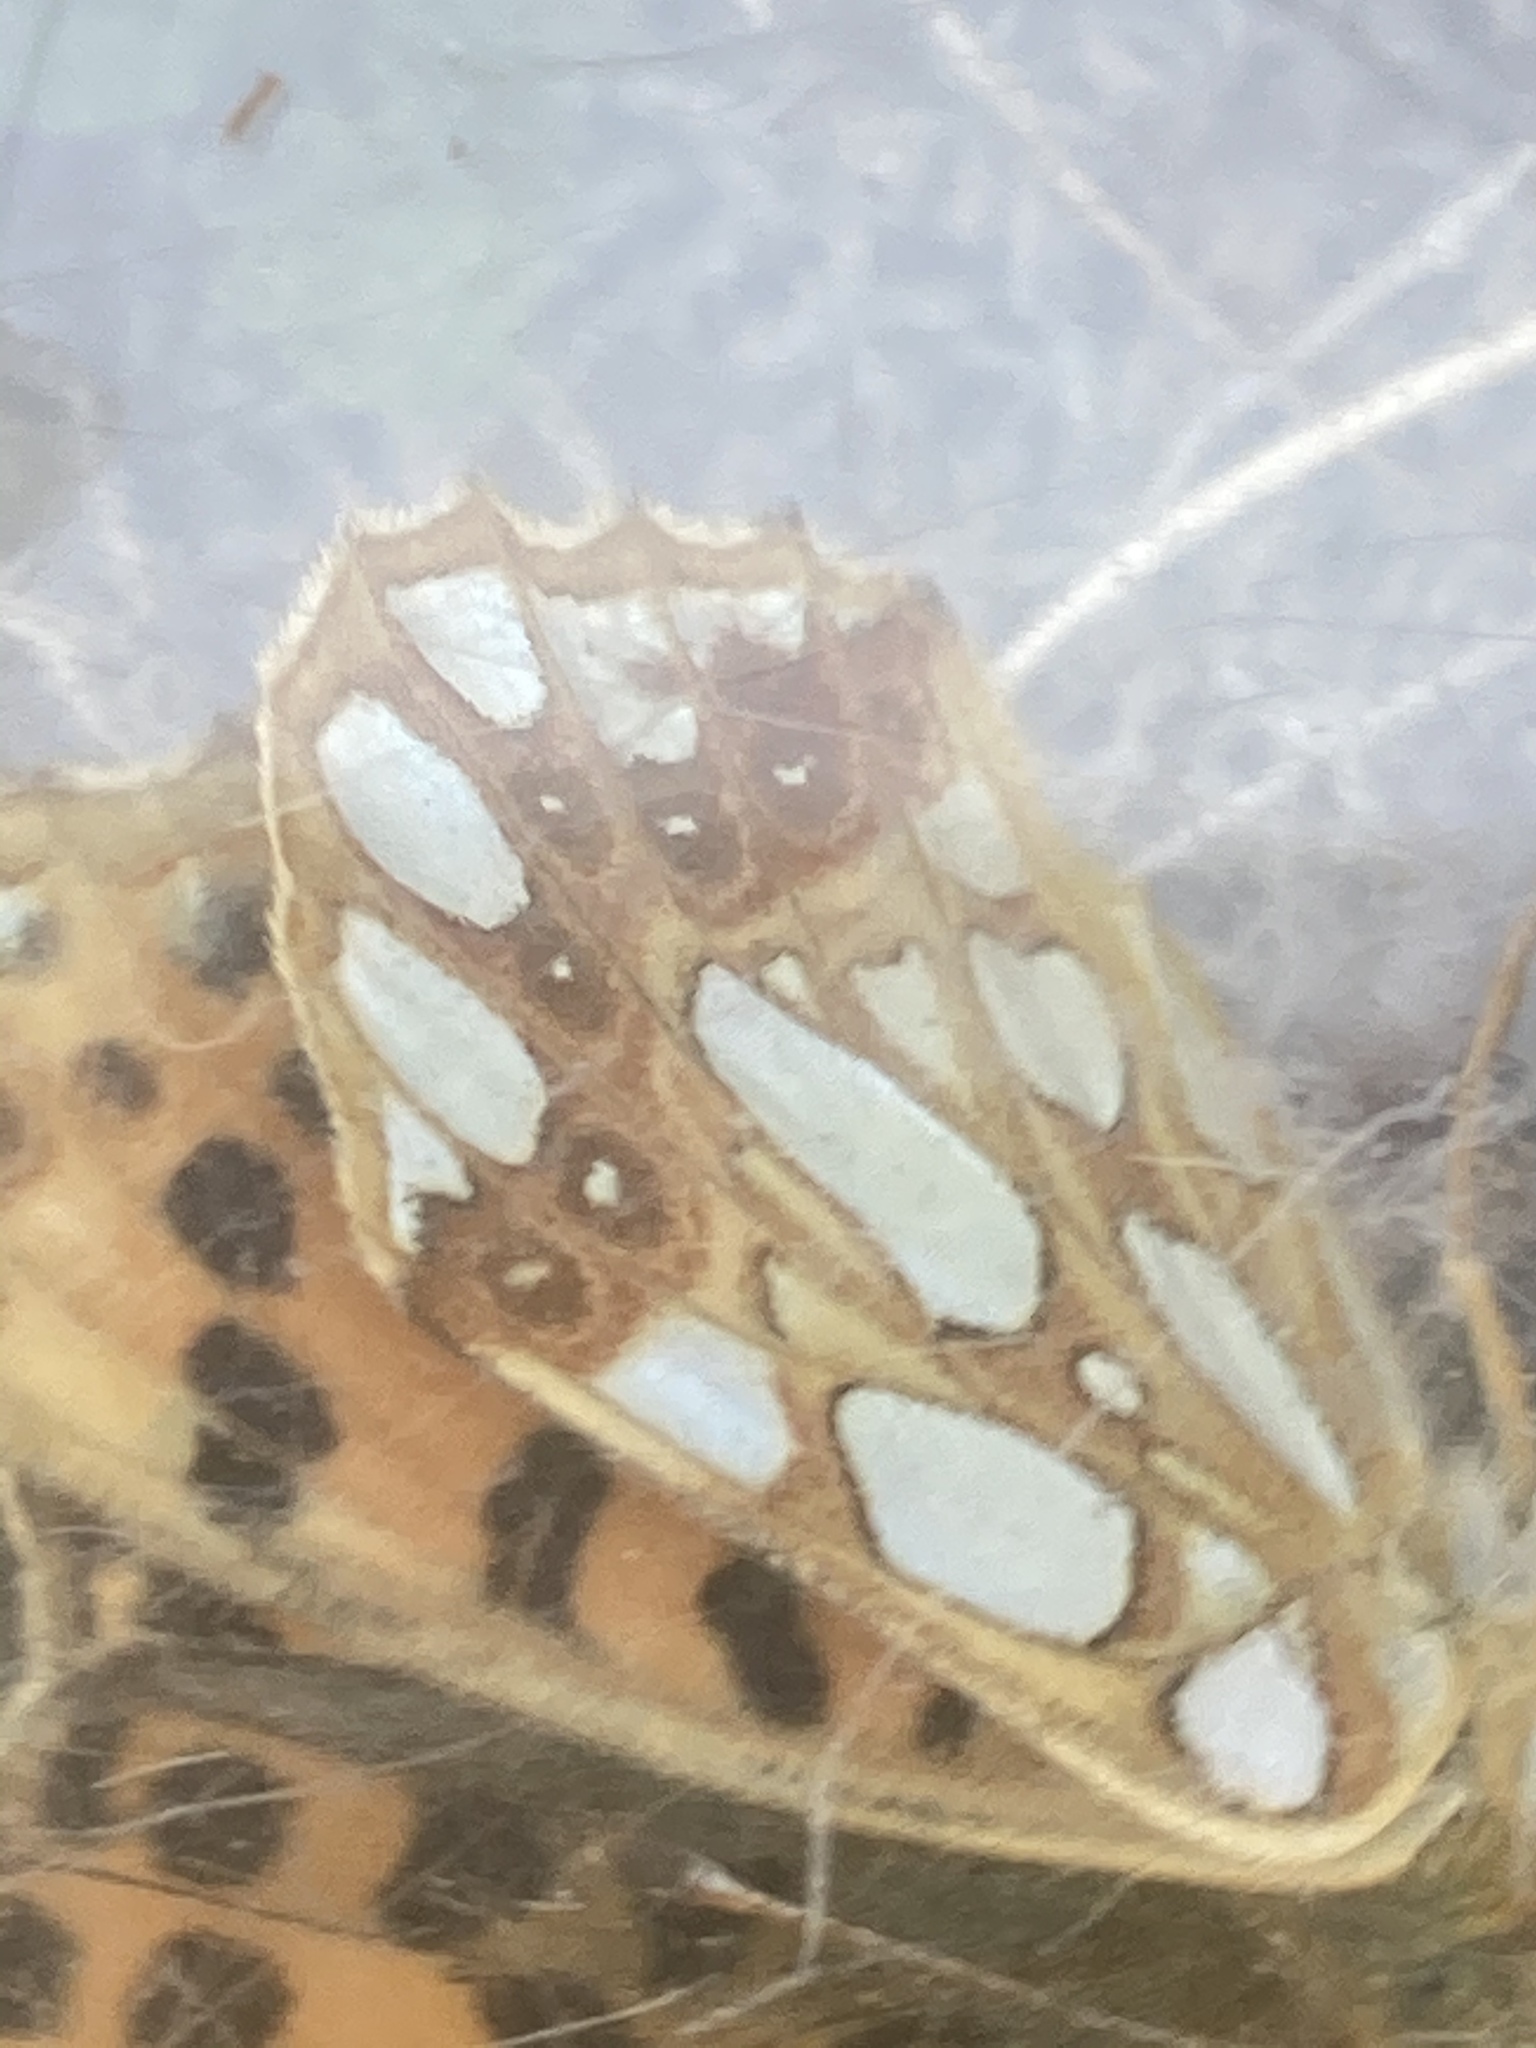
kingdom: Animalia
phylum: Arthropoda
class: Insecta
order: Lepidoptera
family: Nymphalidae
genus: Issoria
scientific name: Issoria lathonia
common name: Queen of spain fritillary
